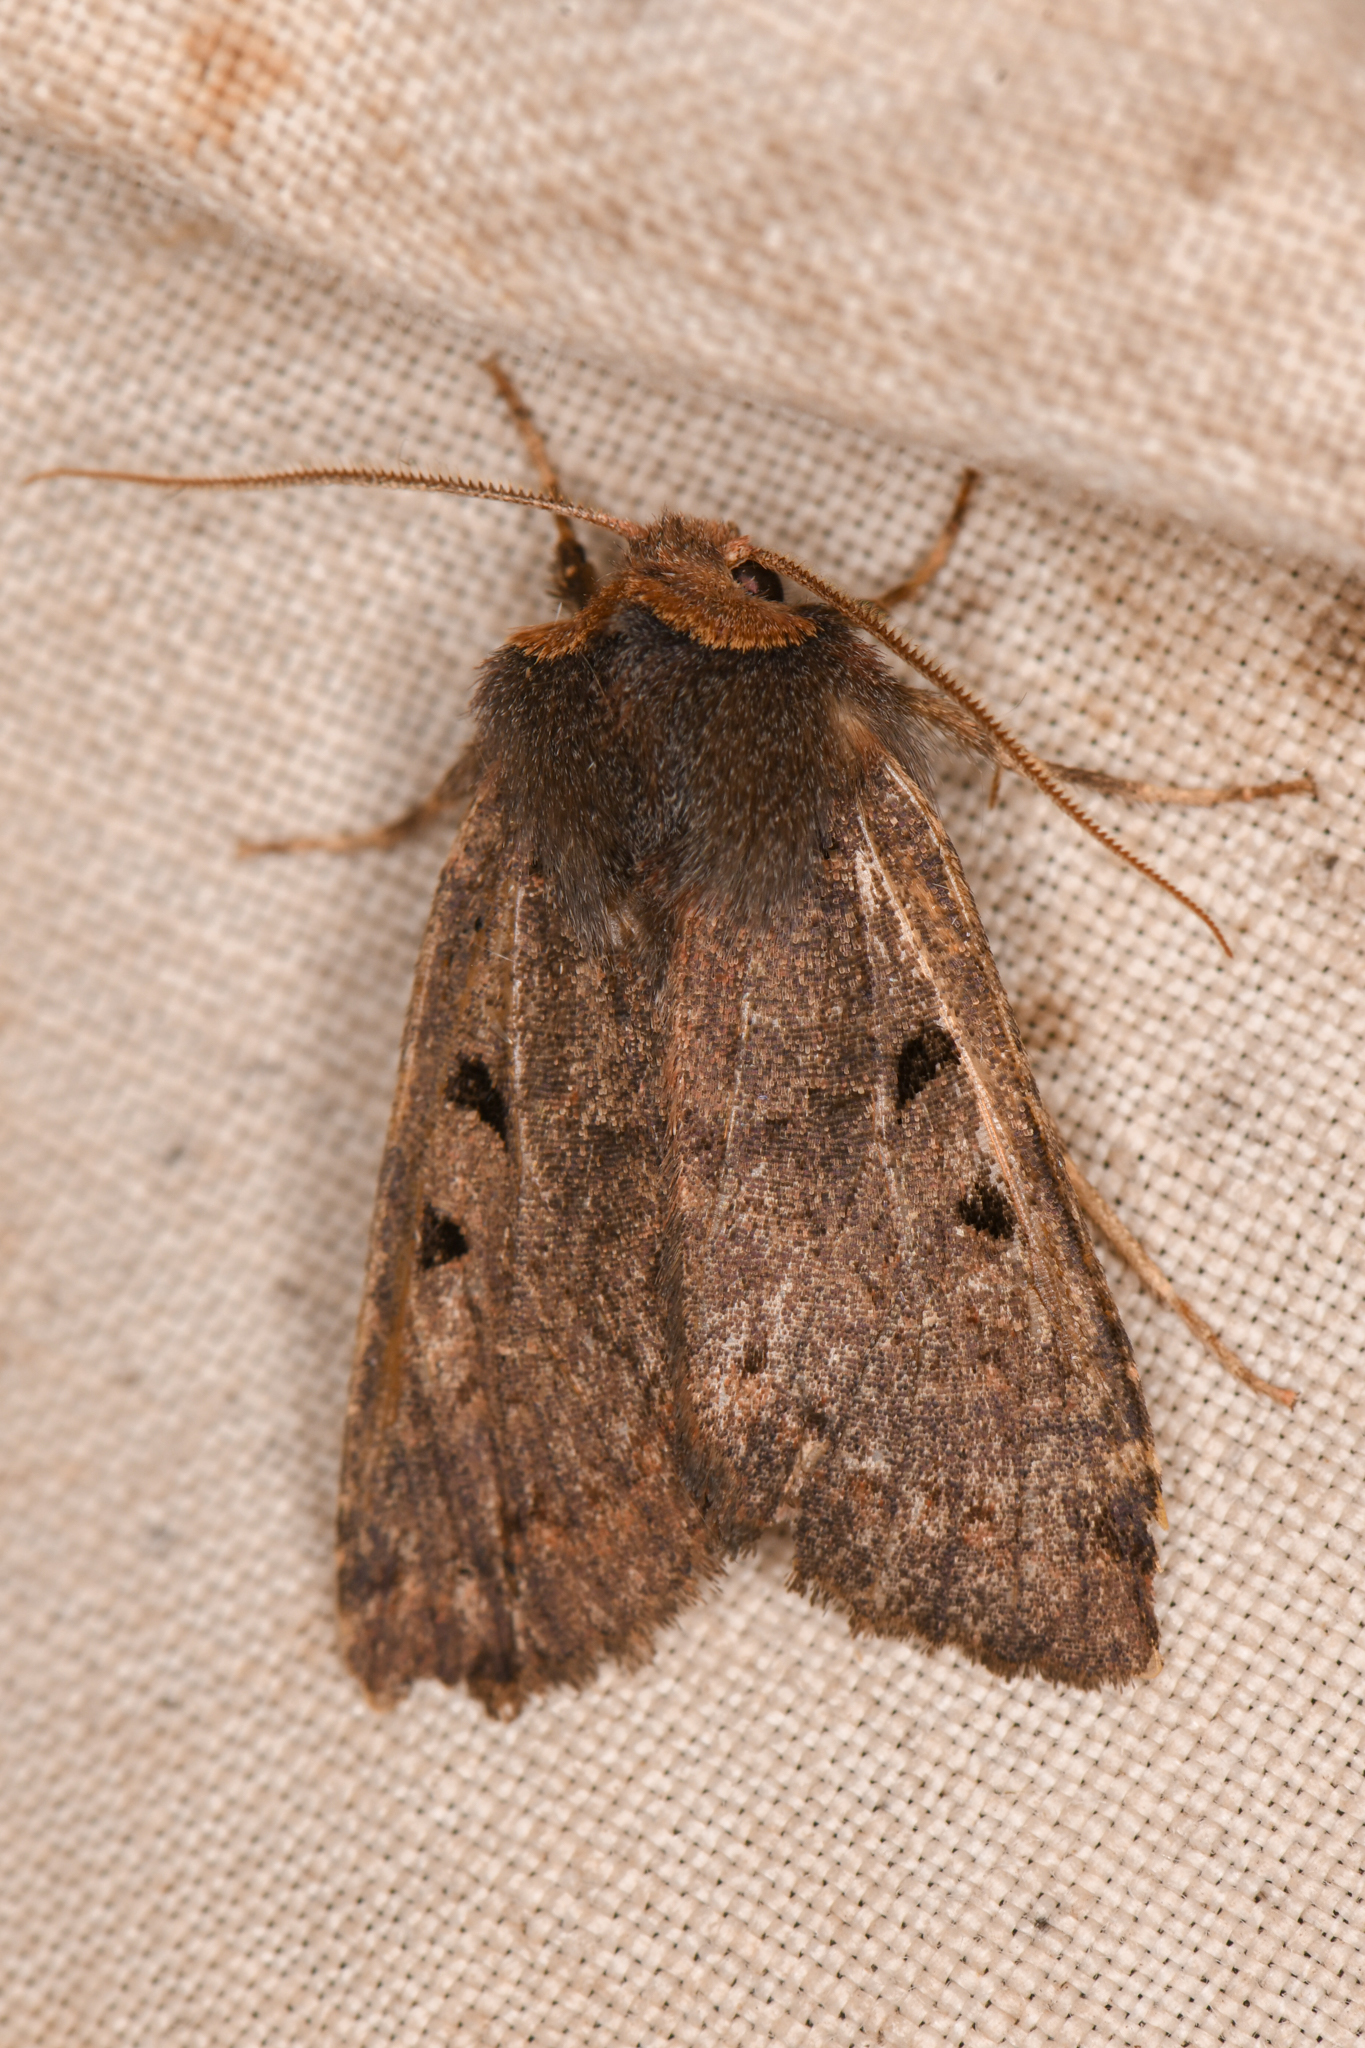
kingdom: Animalia
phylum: Arthropoda
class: Insecta
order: Lepidoptera
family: Noctuidae
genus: Orthosia
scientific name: Orthosia praeses
